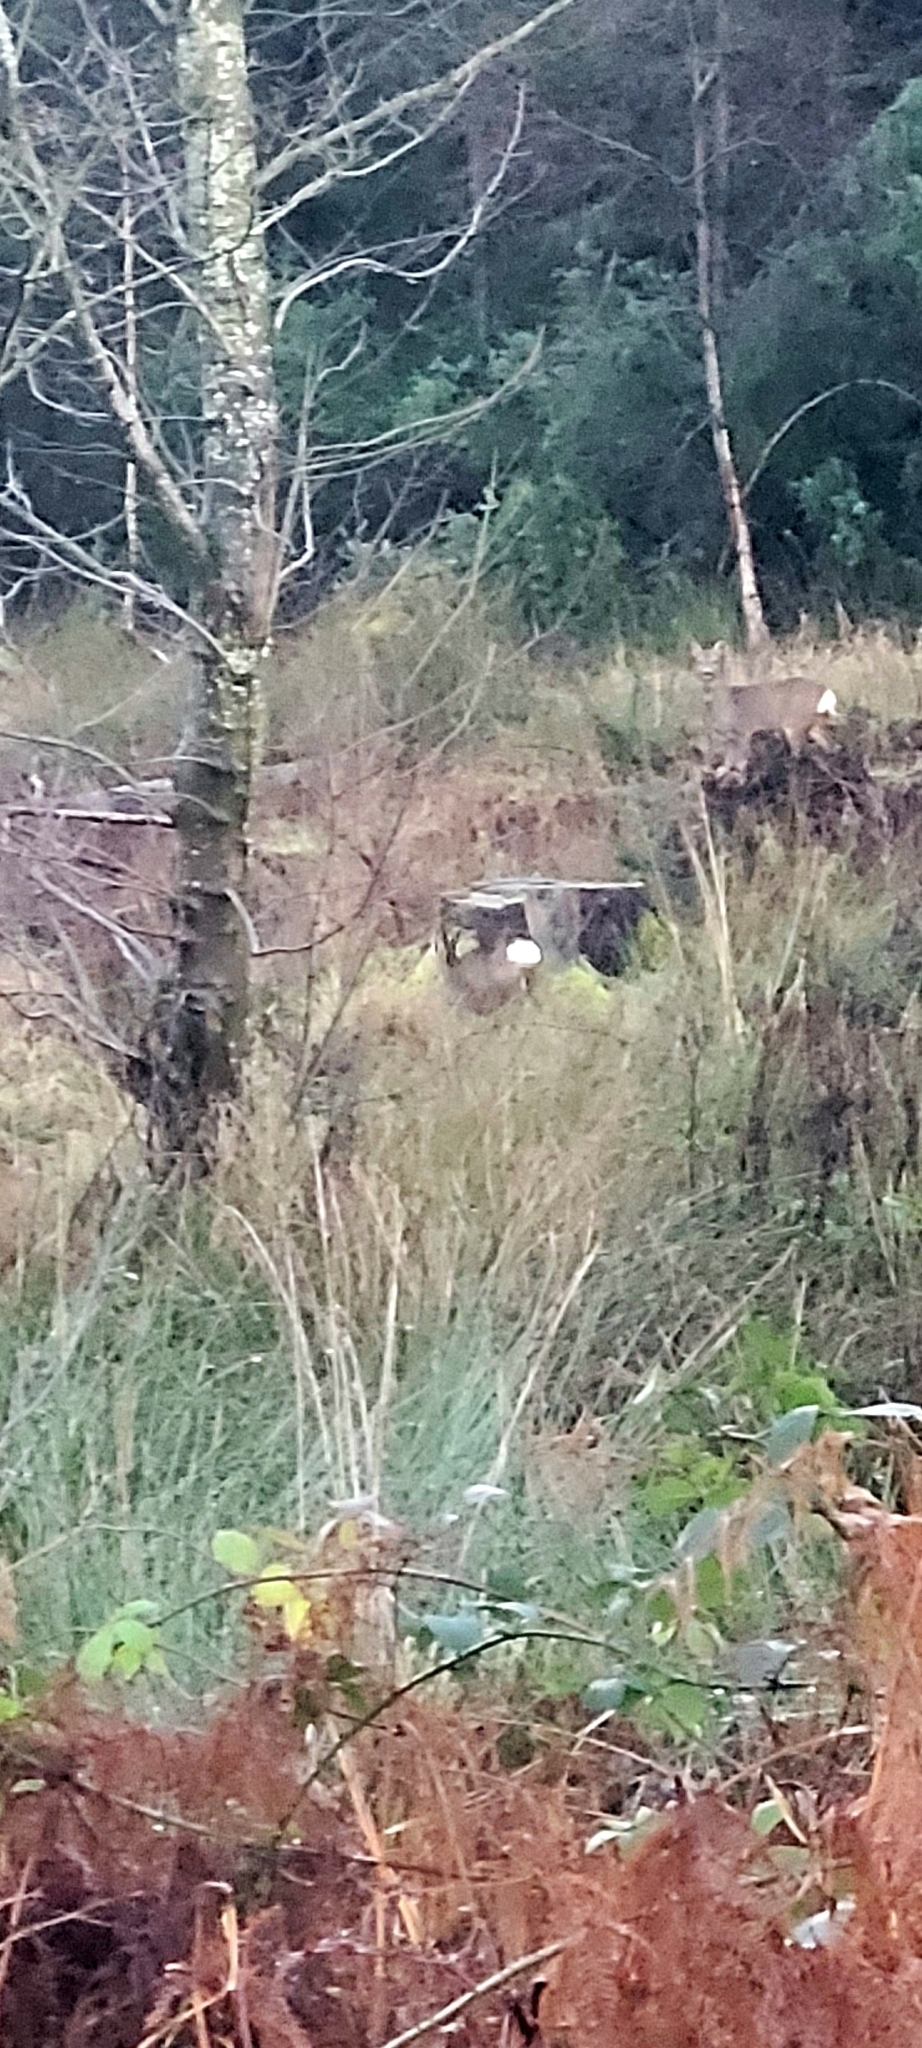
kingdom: Animalia
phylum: Chordata
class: Mammalia
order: Artiodactyla
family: Cervidae
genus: Capreolus
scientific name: Capreolus capreolus
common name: Western roe deer
